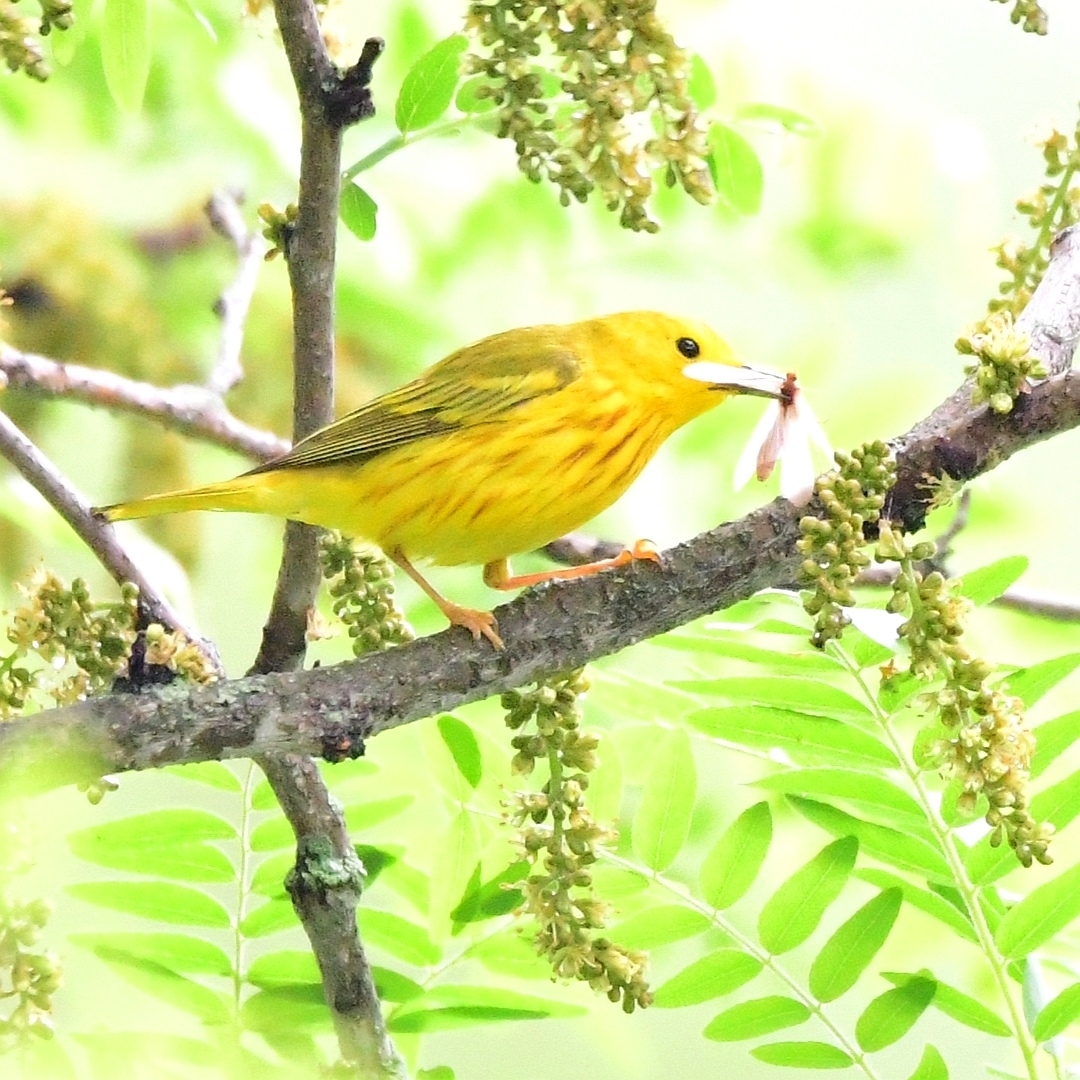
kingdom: Animalia
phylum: Chordata
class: Aves
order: Passeriformes
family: Parulidae
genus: Setophaga
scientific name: Setophaga petechia
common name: Yellow warbler
